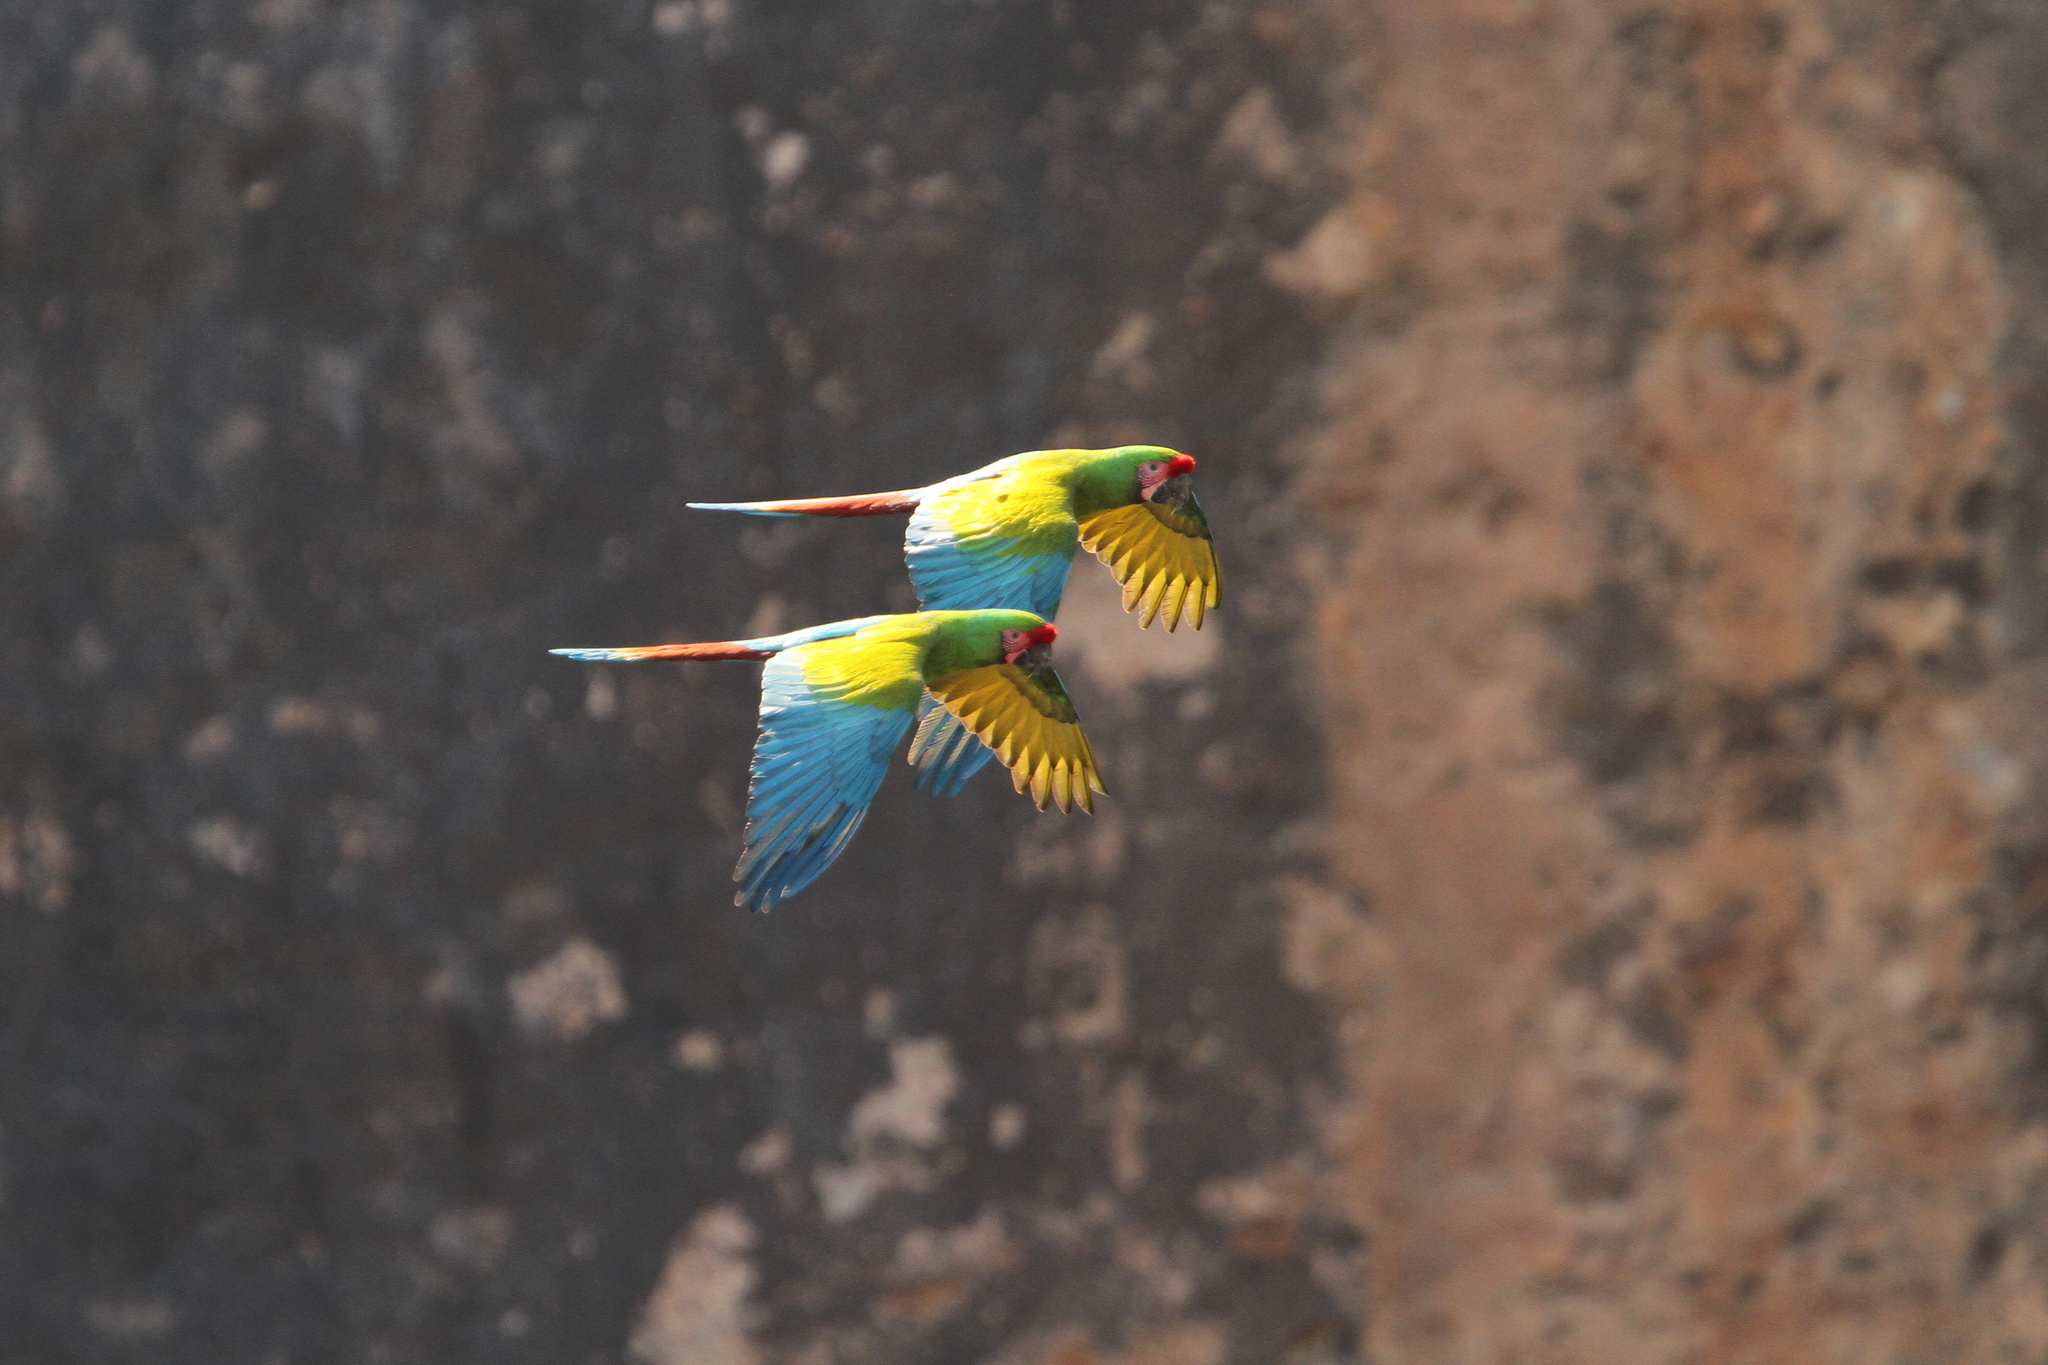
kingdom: Animalia
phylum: Chordata
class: Aves
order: Psittaciformes
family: Psittacidae
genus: Ara
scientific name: Ara militaris
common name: Military macaw
